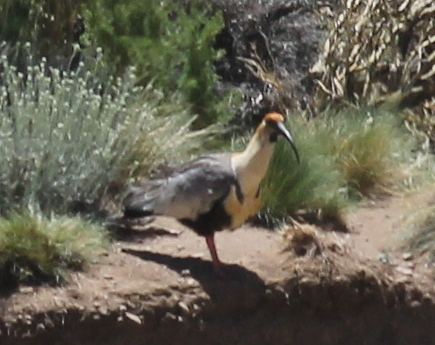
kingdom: Animalia
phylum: Chordata
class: Aves
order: Pelecaniformes
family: Threskiornithidae
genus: Theristicus
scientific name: Theristicus melanopis
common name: Black-faced ibis
